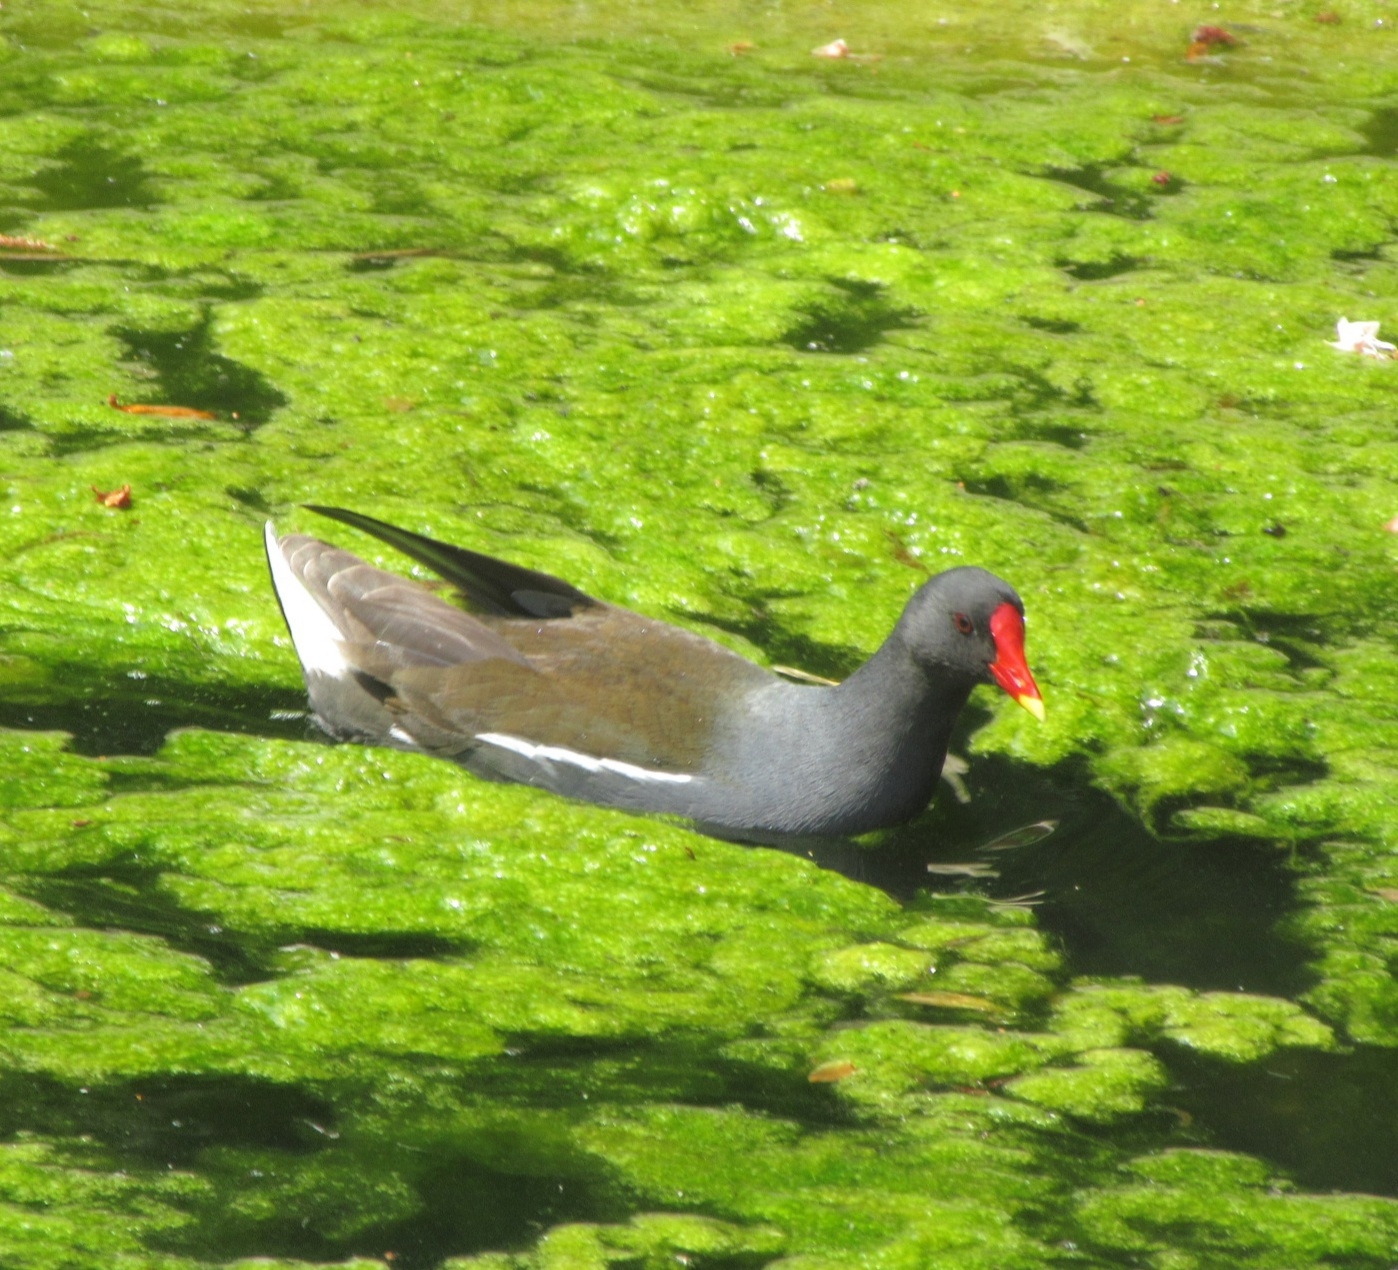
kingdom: Animalia
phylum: Chordata
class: Aves
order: Gruiformes
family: Rallidae
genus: Gallinula
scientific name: Gallinula chloropus
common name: Common moorhen
